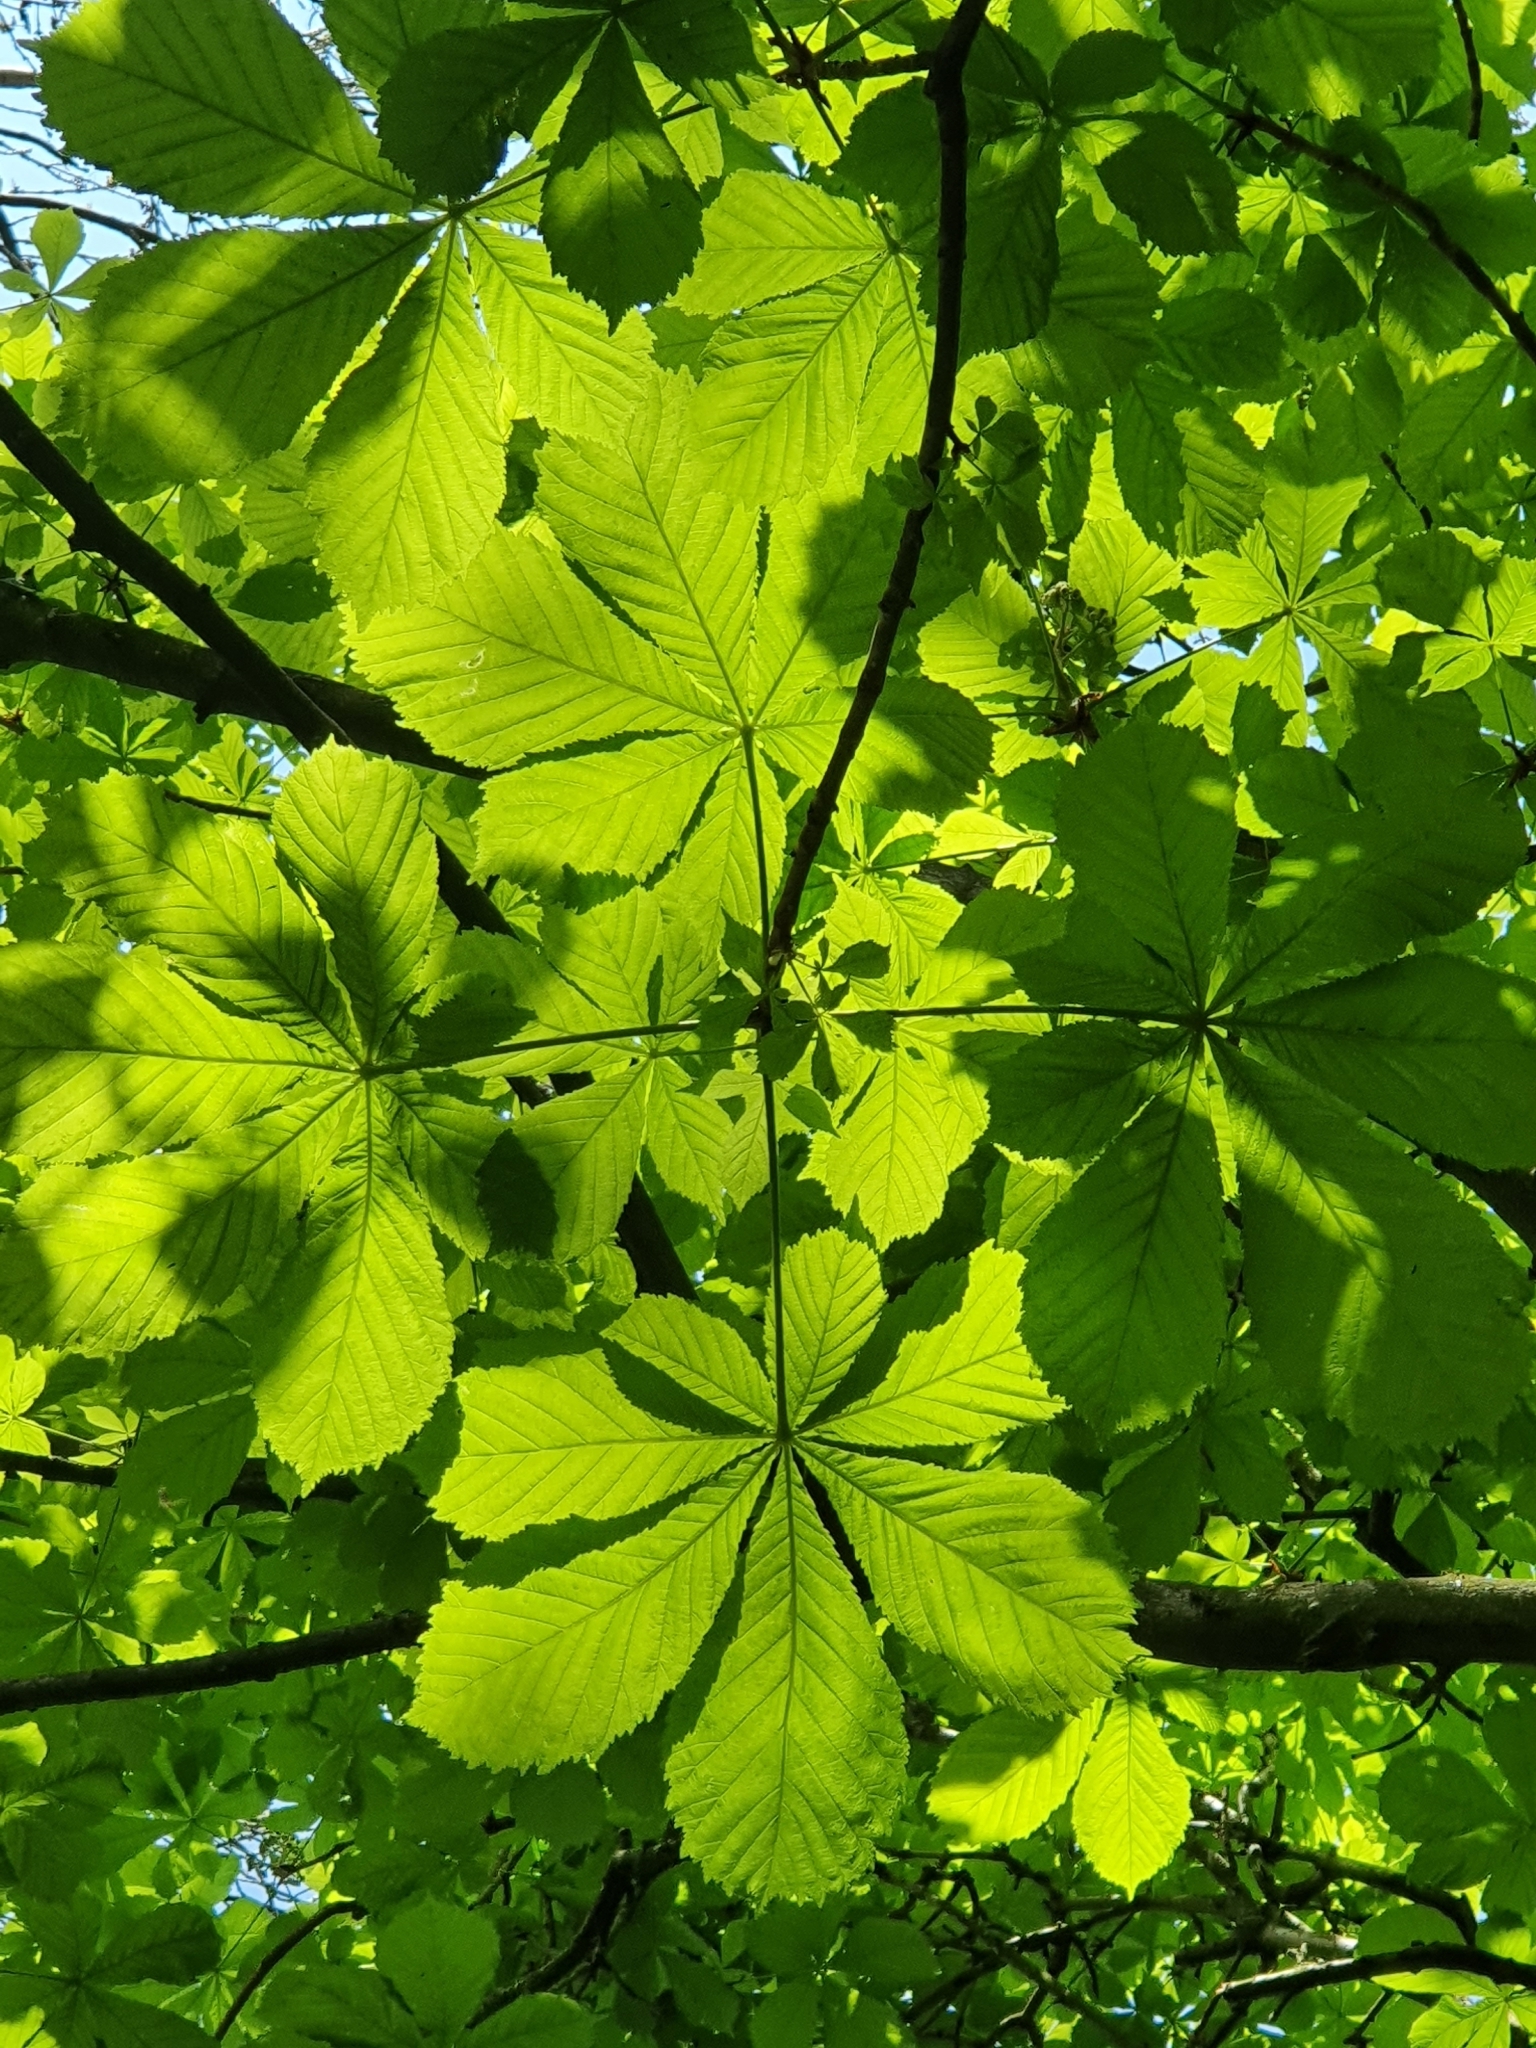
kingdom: Plantae
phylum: Tracheophyta
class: Magnoliopsida
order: Sapindales
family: Sapindaceae
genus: Aesculus
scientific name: Aesculus hippocastanum
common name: Horse-chestnut
